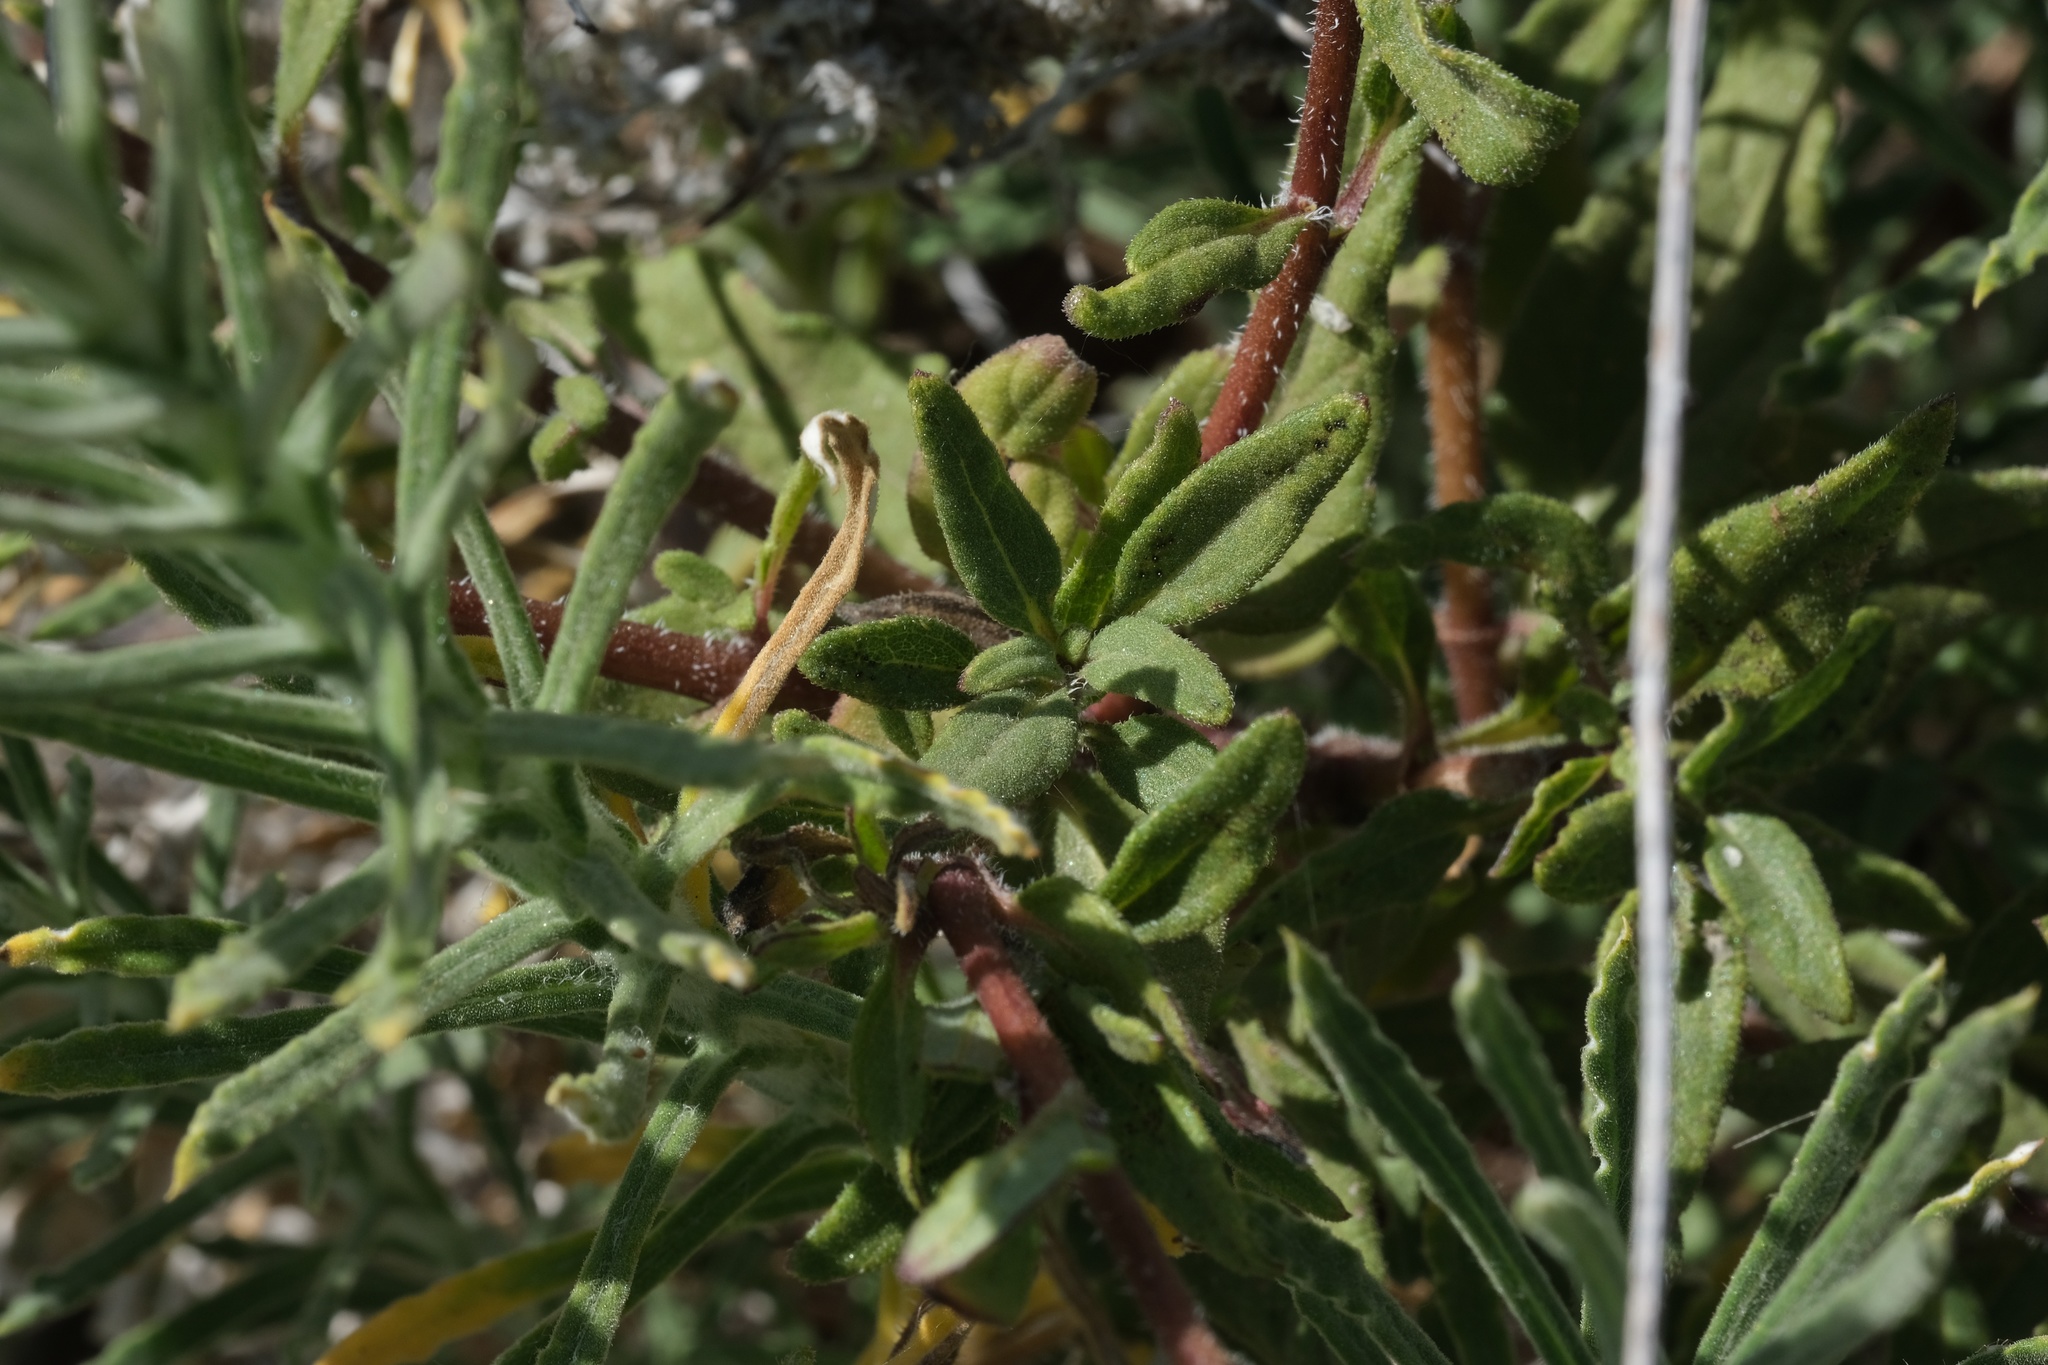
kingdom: Plantae
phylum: Tracheophyta
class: Magnoliopsida
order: Asterales
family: Asteraceae
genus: Helianthus
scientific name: Helianthus gracilentus
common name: Slender sunflower
